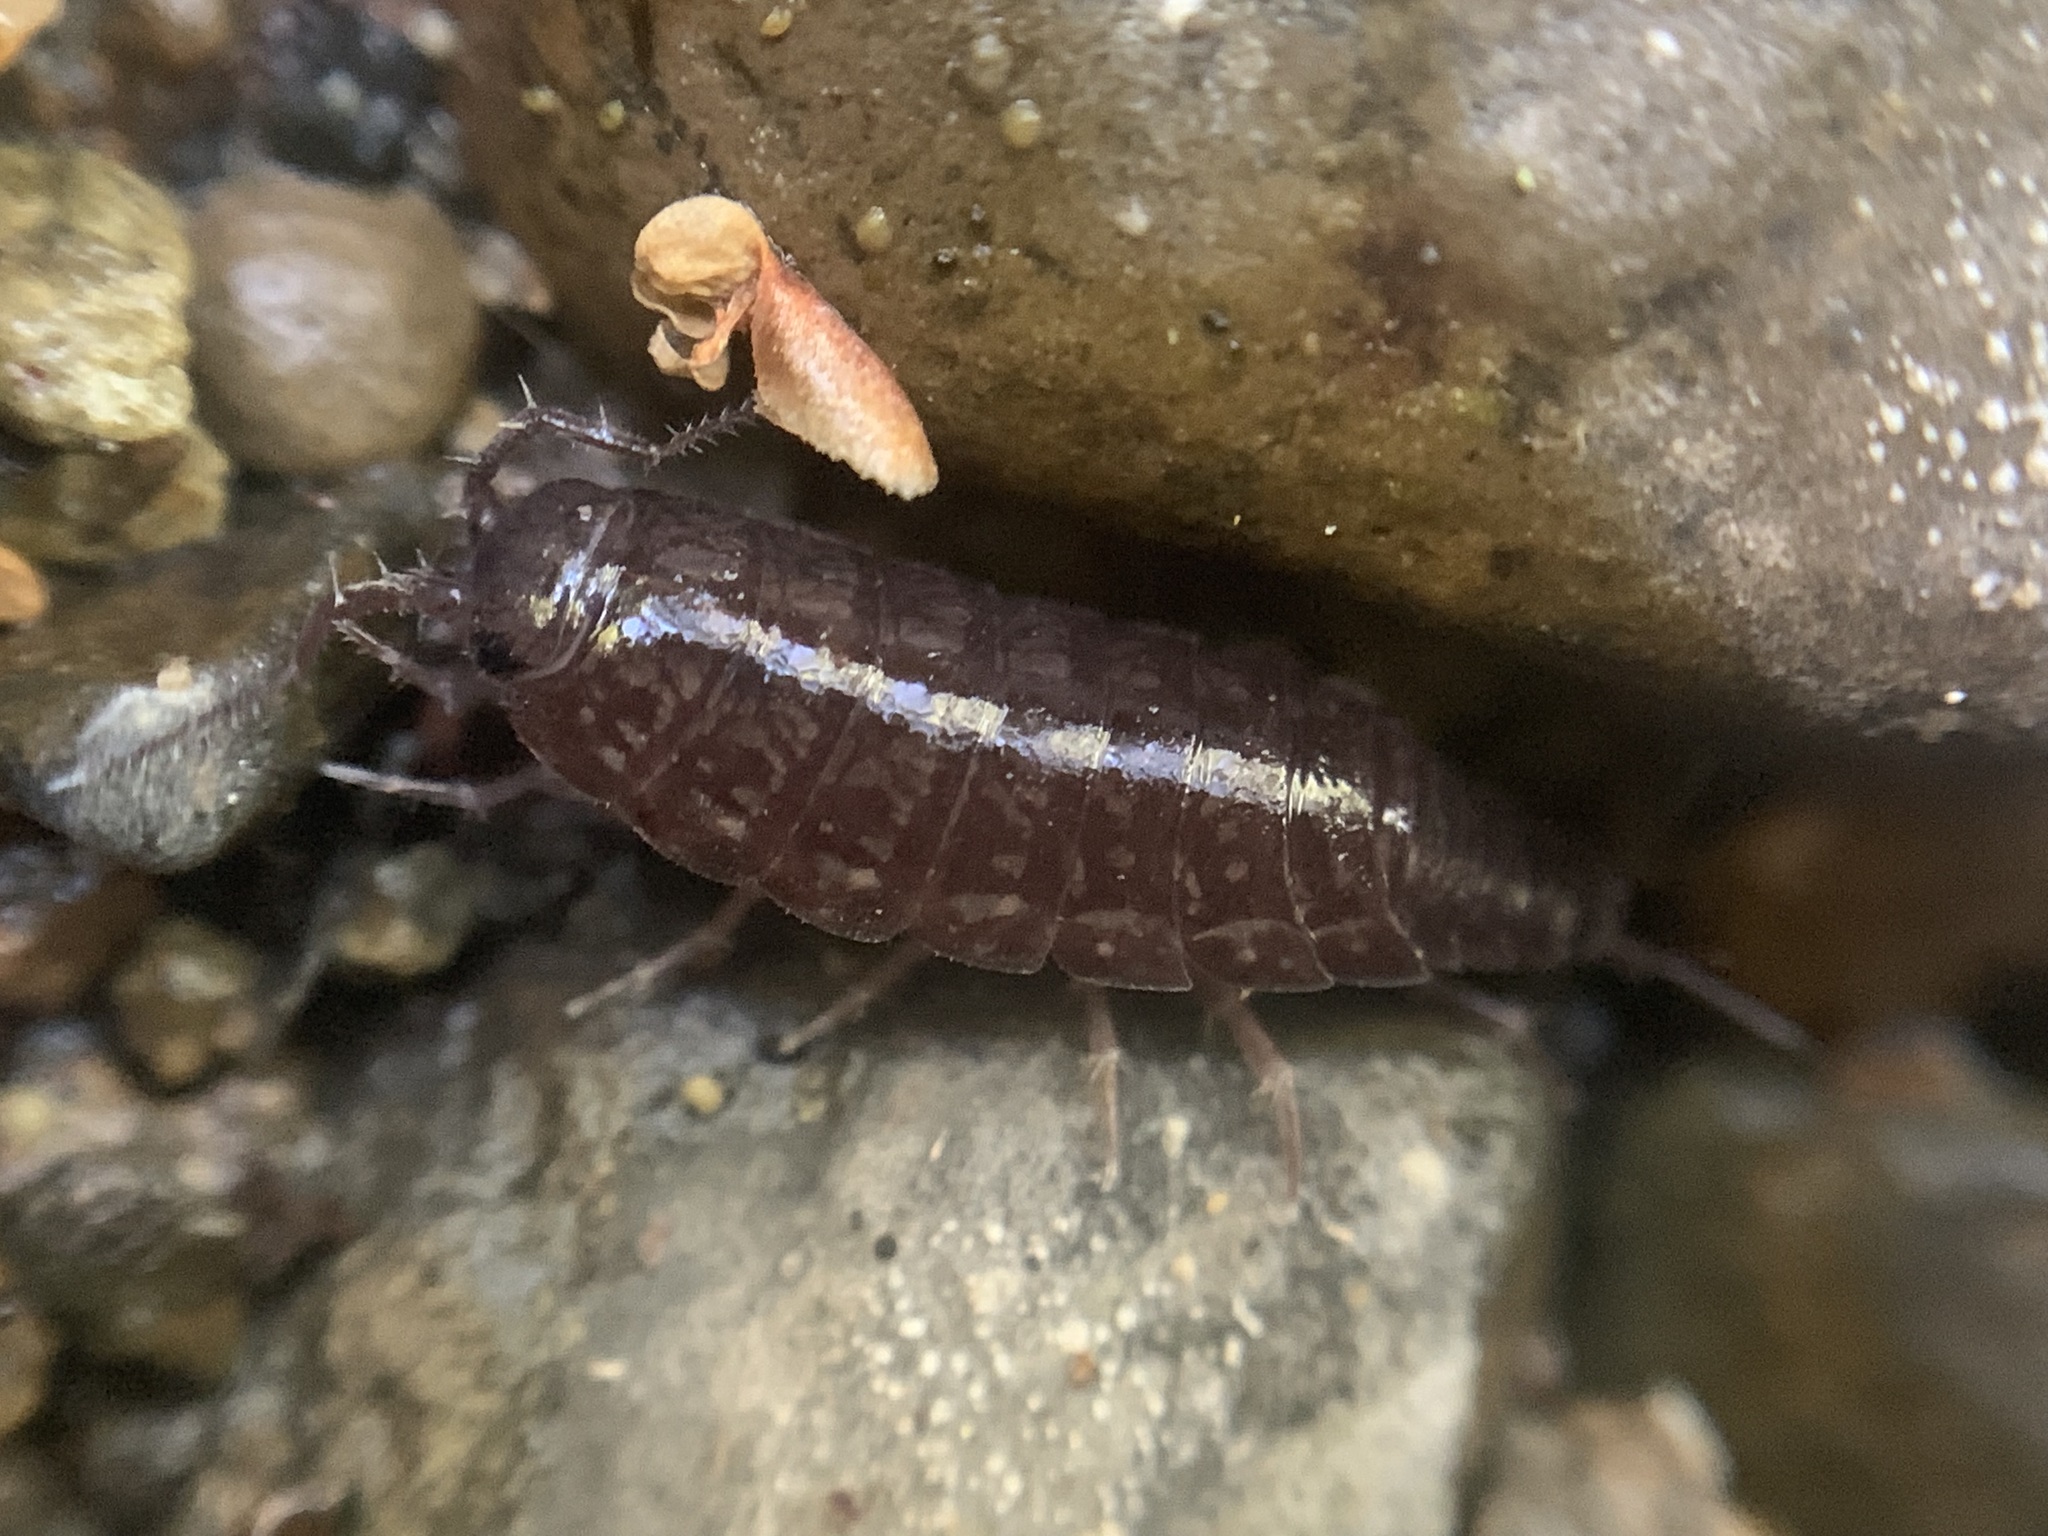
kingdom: Animalia
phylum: Arthropoda
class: Malacostraca
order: Isopoda
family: Ligiidae
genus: Ligidium
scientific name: Ligidium gracile
